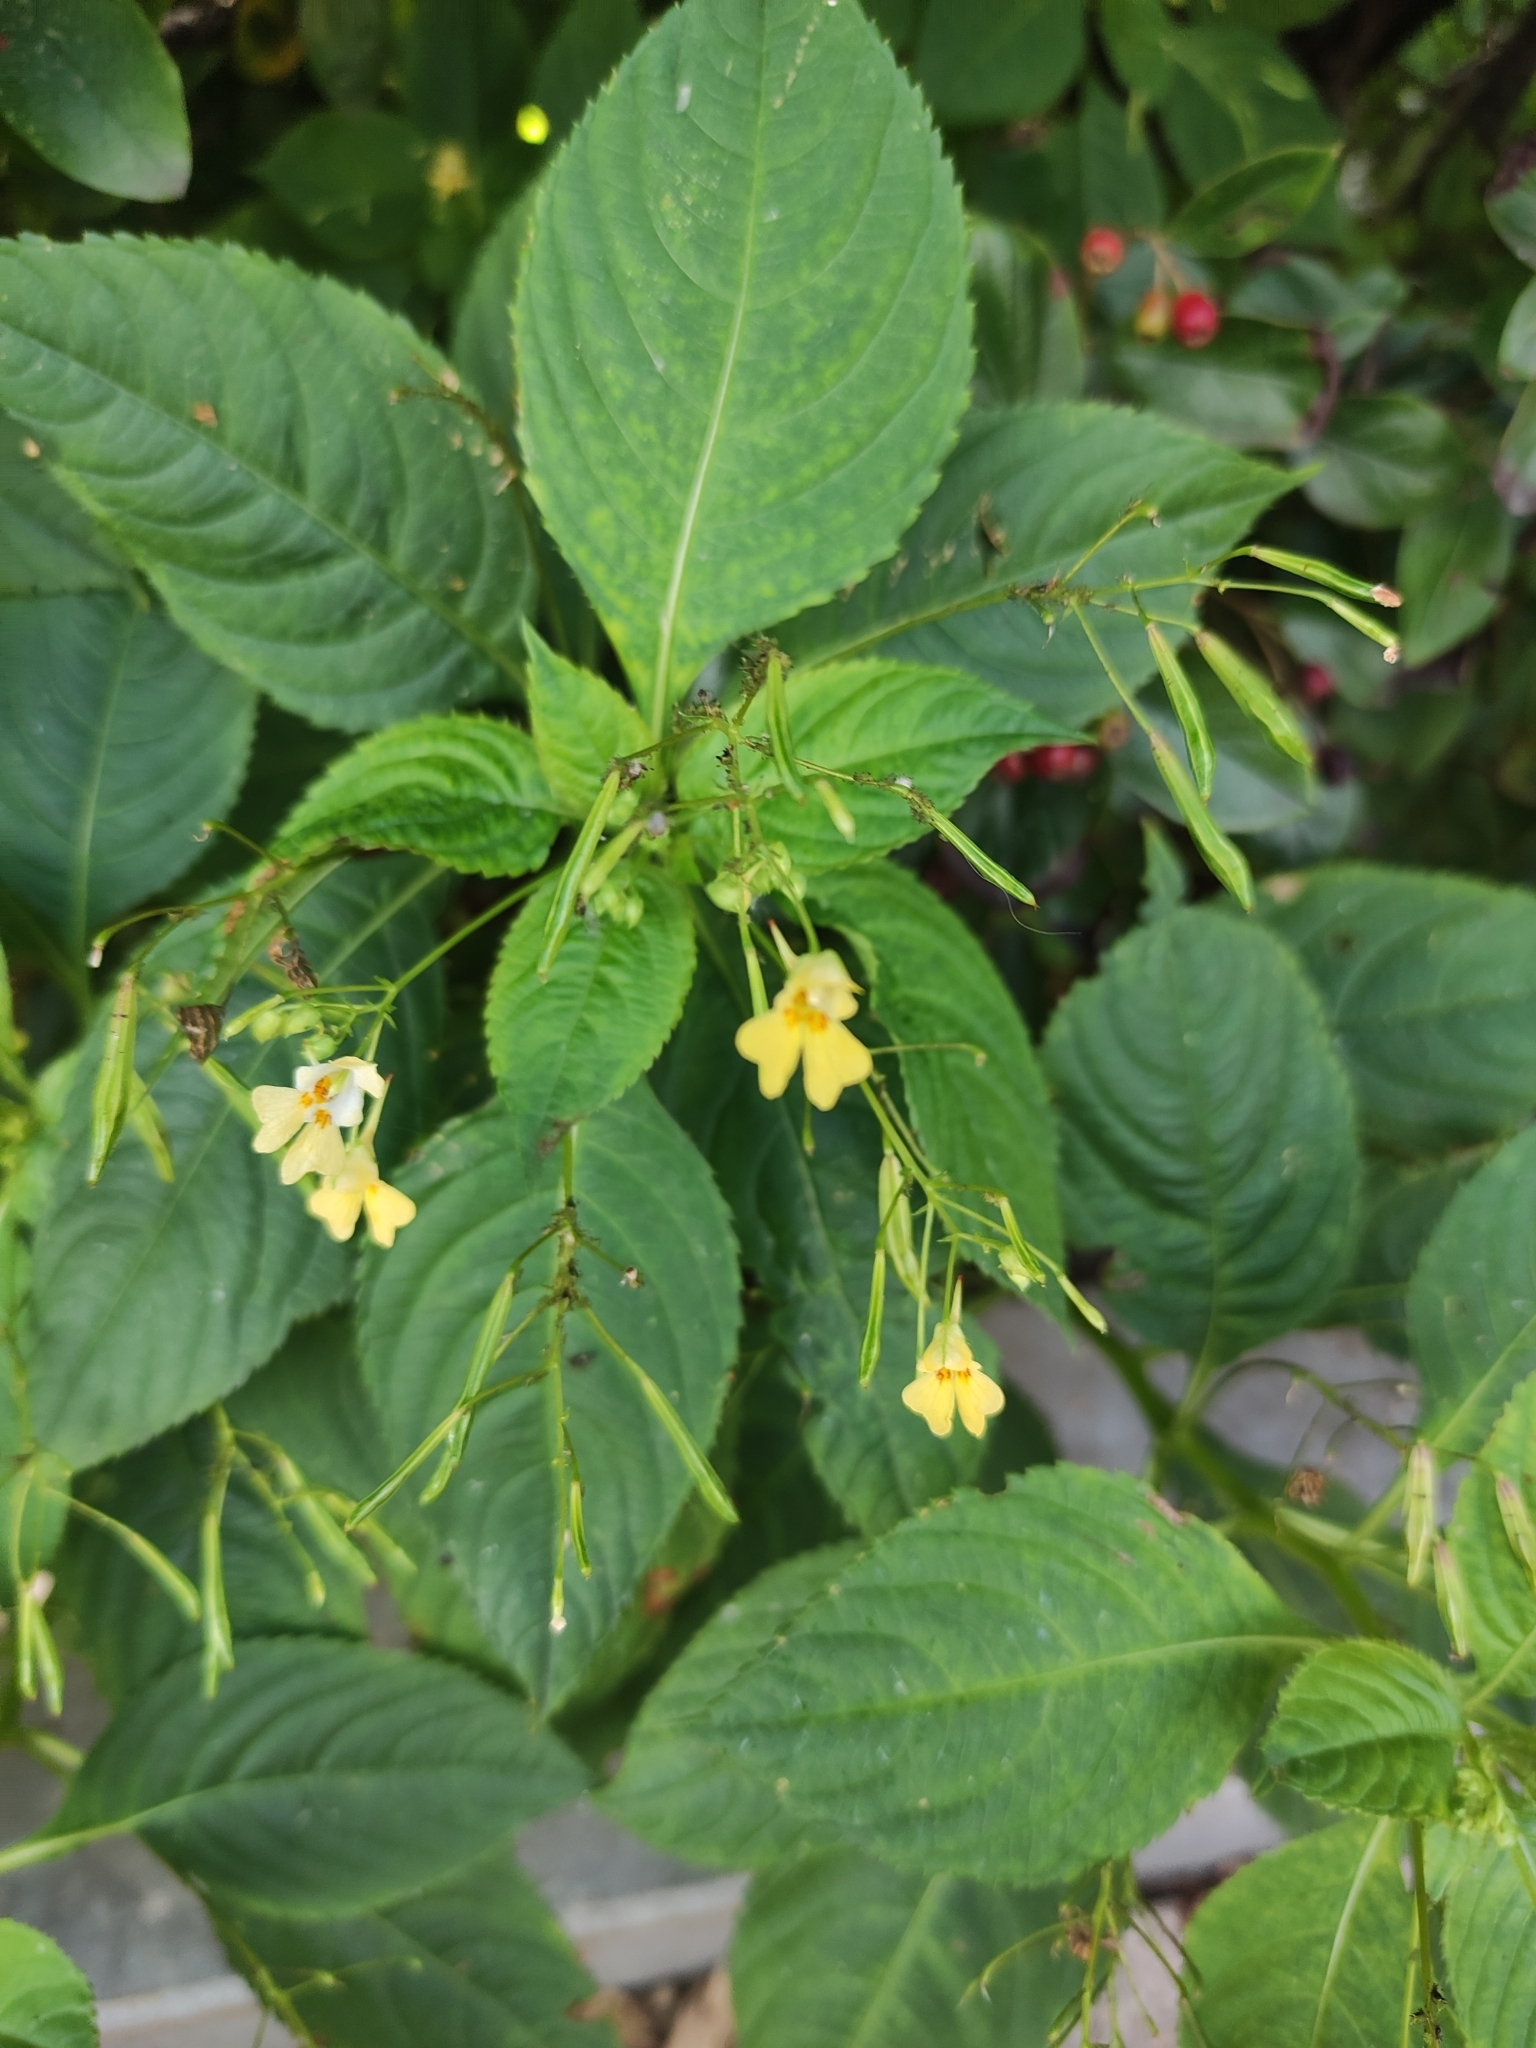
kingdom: Plantae
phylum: Tracheophyta
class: Magnoliopsida
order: Ericales
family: Balsaminaceae
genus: Impatiens
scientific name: Impatiens parviflora
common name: Small balsam
